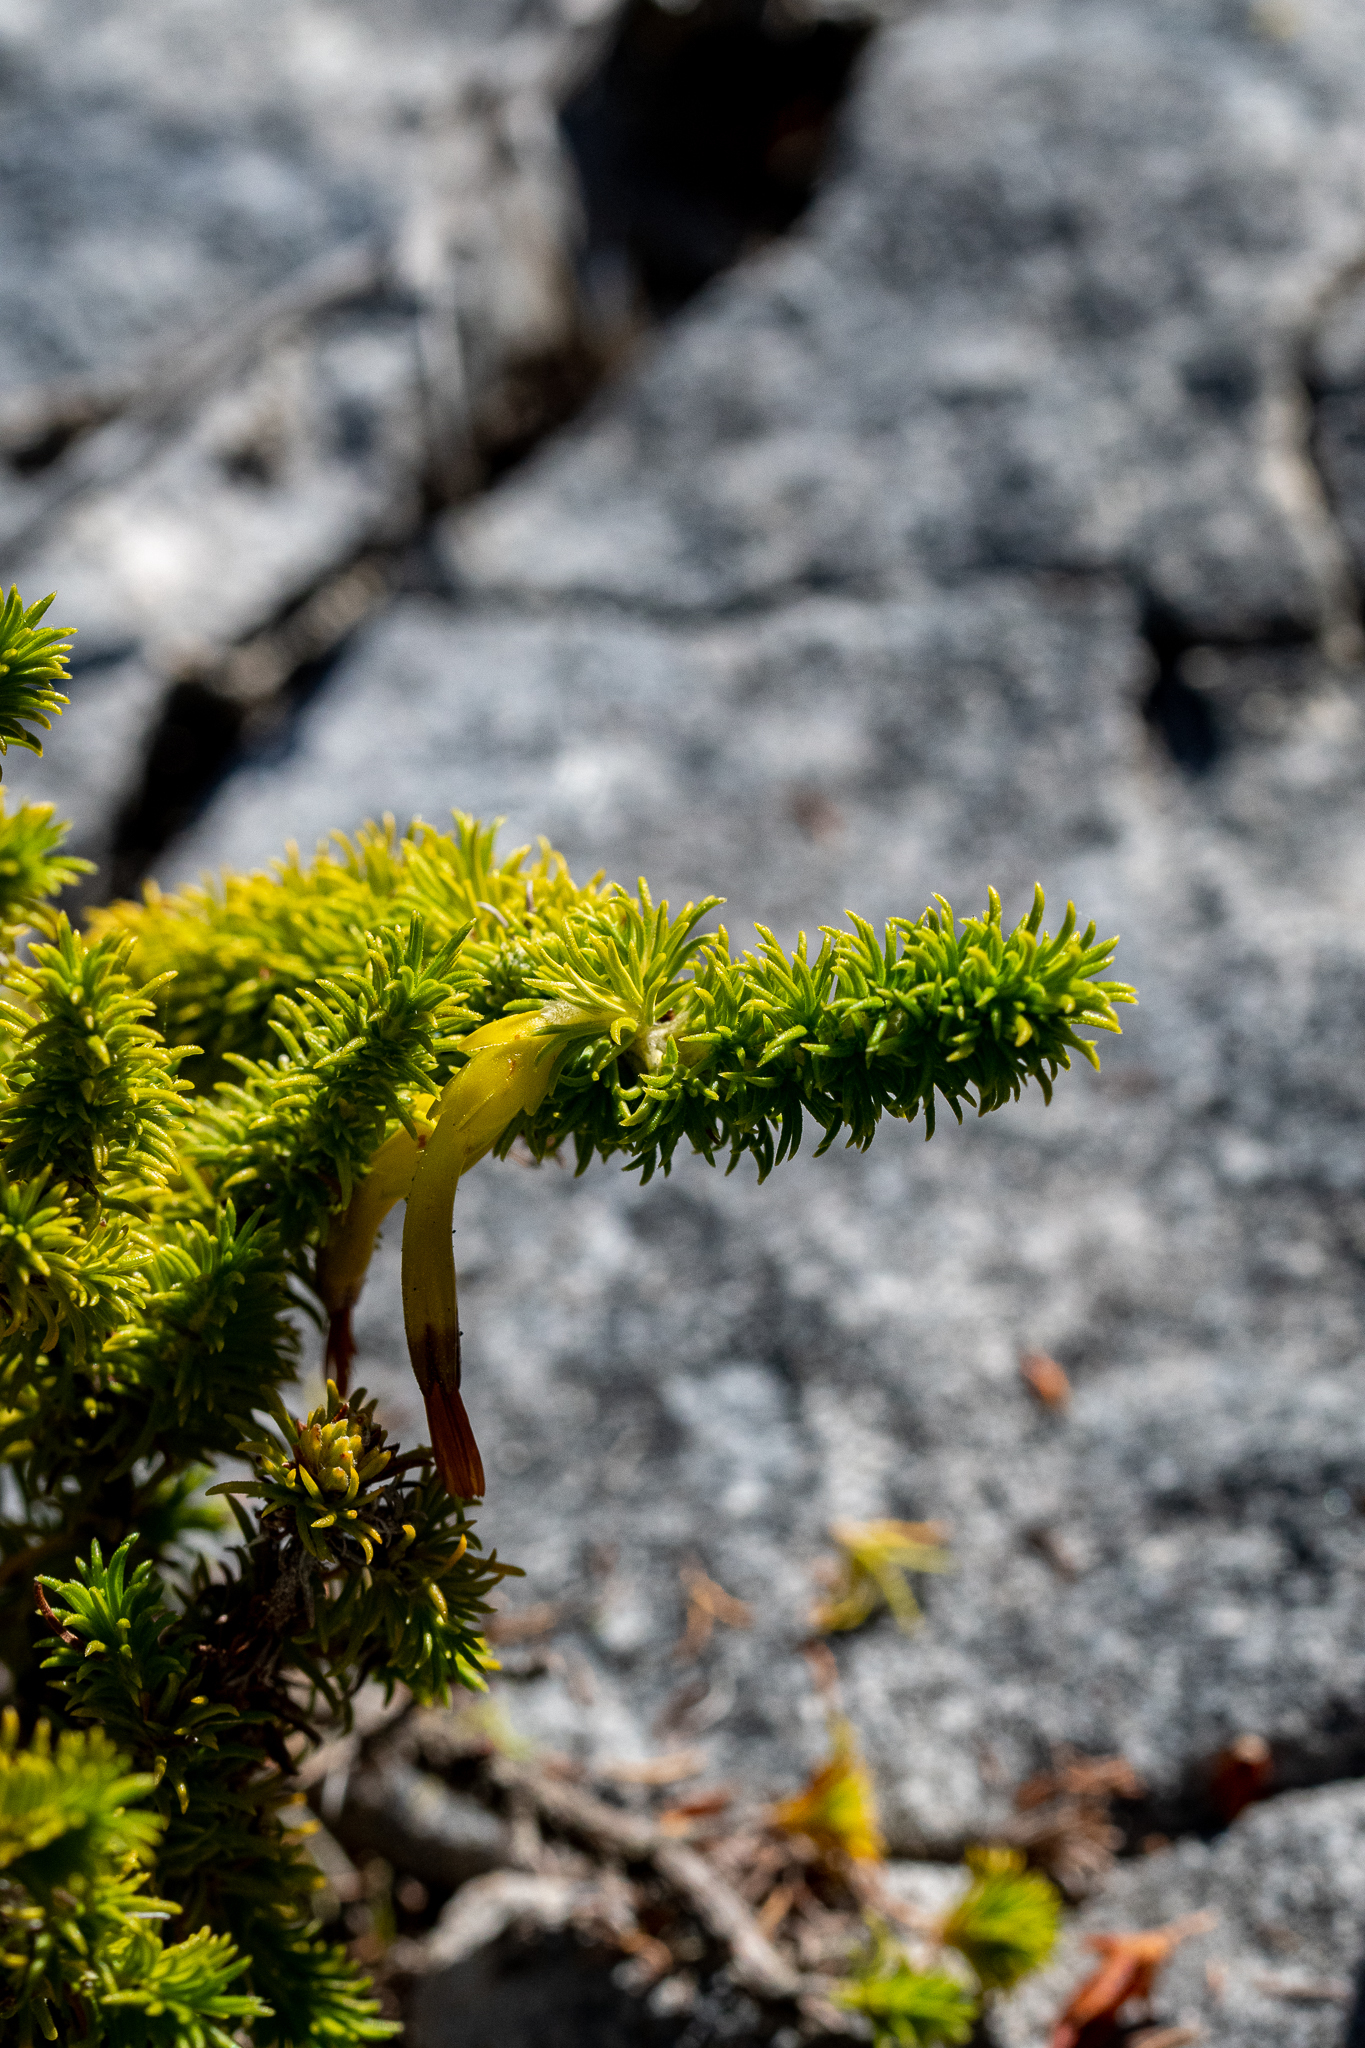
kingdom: Plantae
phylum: Tracheophyta
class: Magnoliopsida
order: Ericales
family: Ericaceae
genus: Erica
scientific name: Erica coccinea
